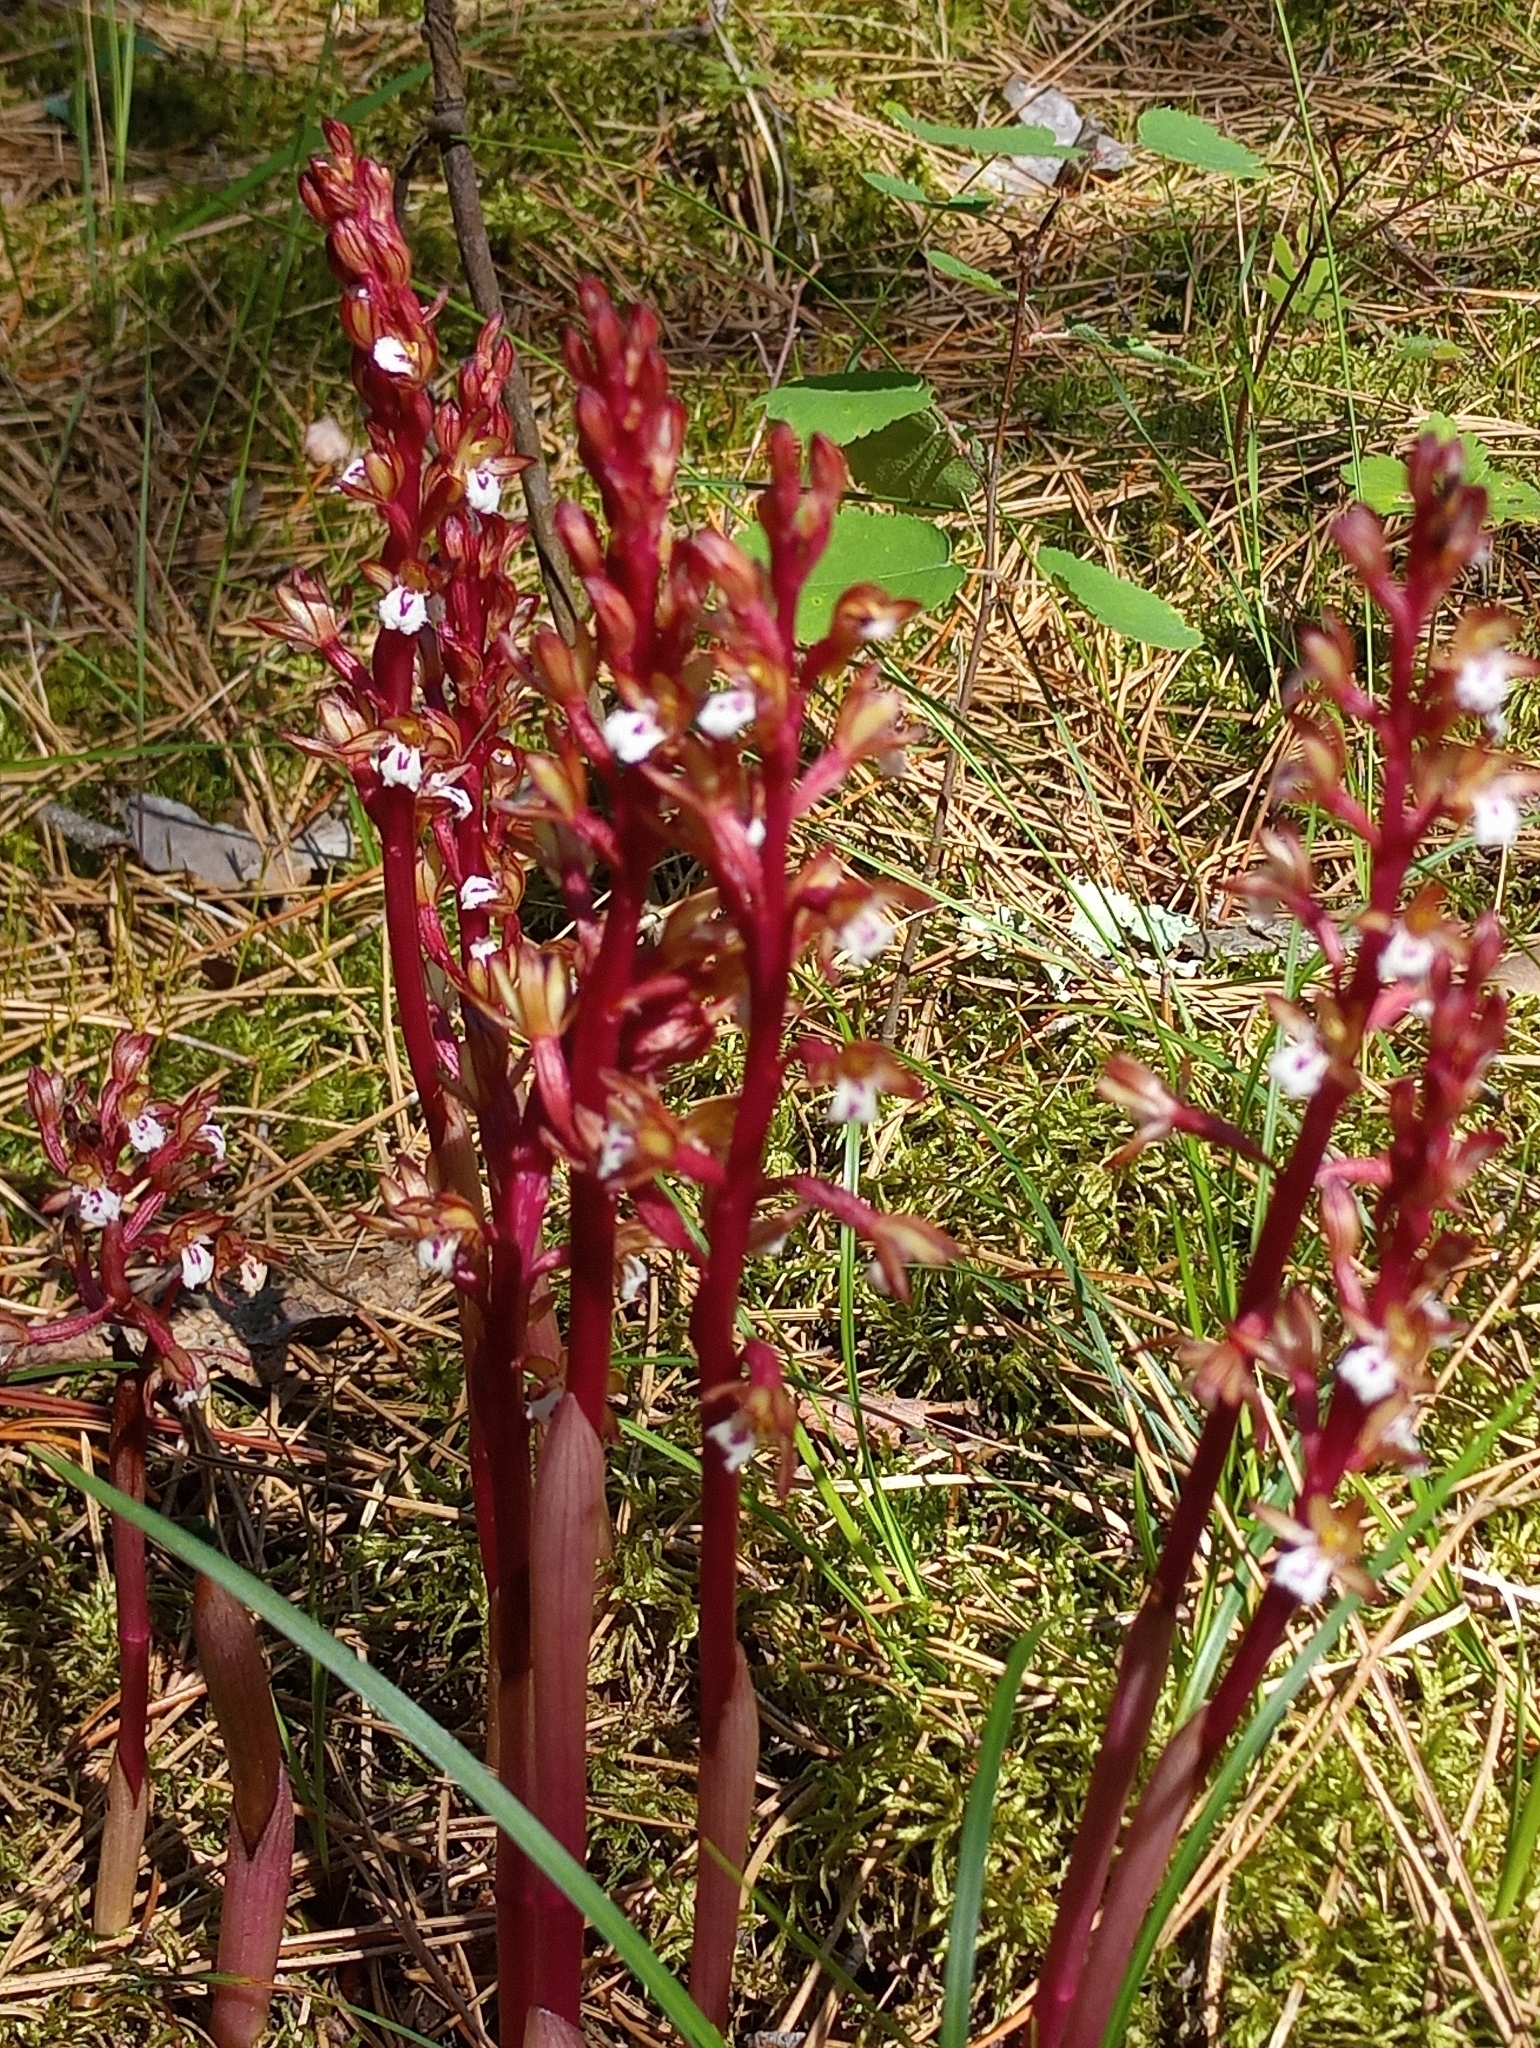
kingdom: Plantae
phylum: Tracheophyta
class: Liliopsida
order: Asparagales
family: Orchidaceae
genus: Corallorhiza
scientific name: Corallorhiza maculata
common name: Spotted coralroot
